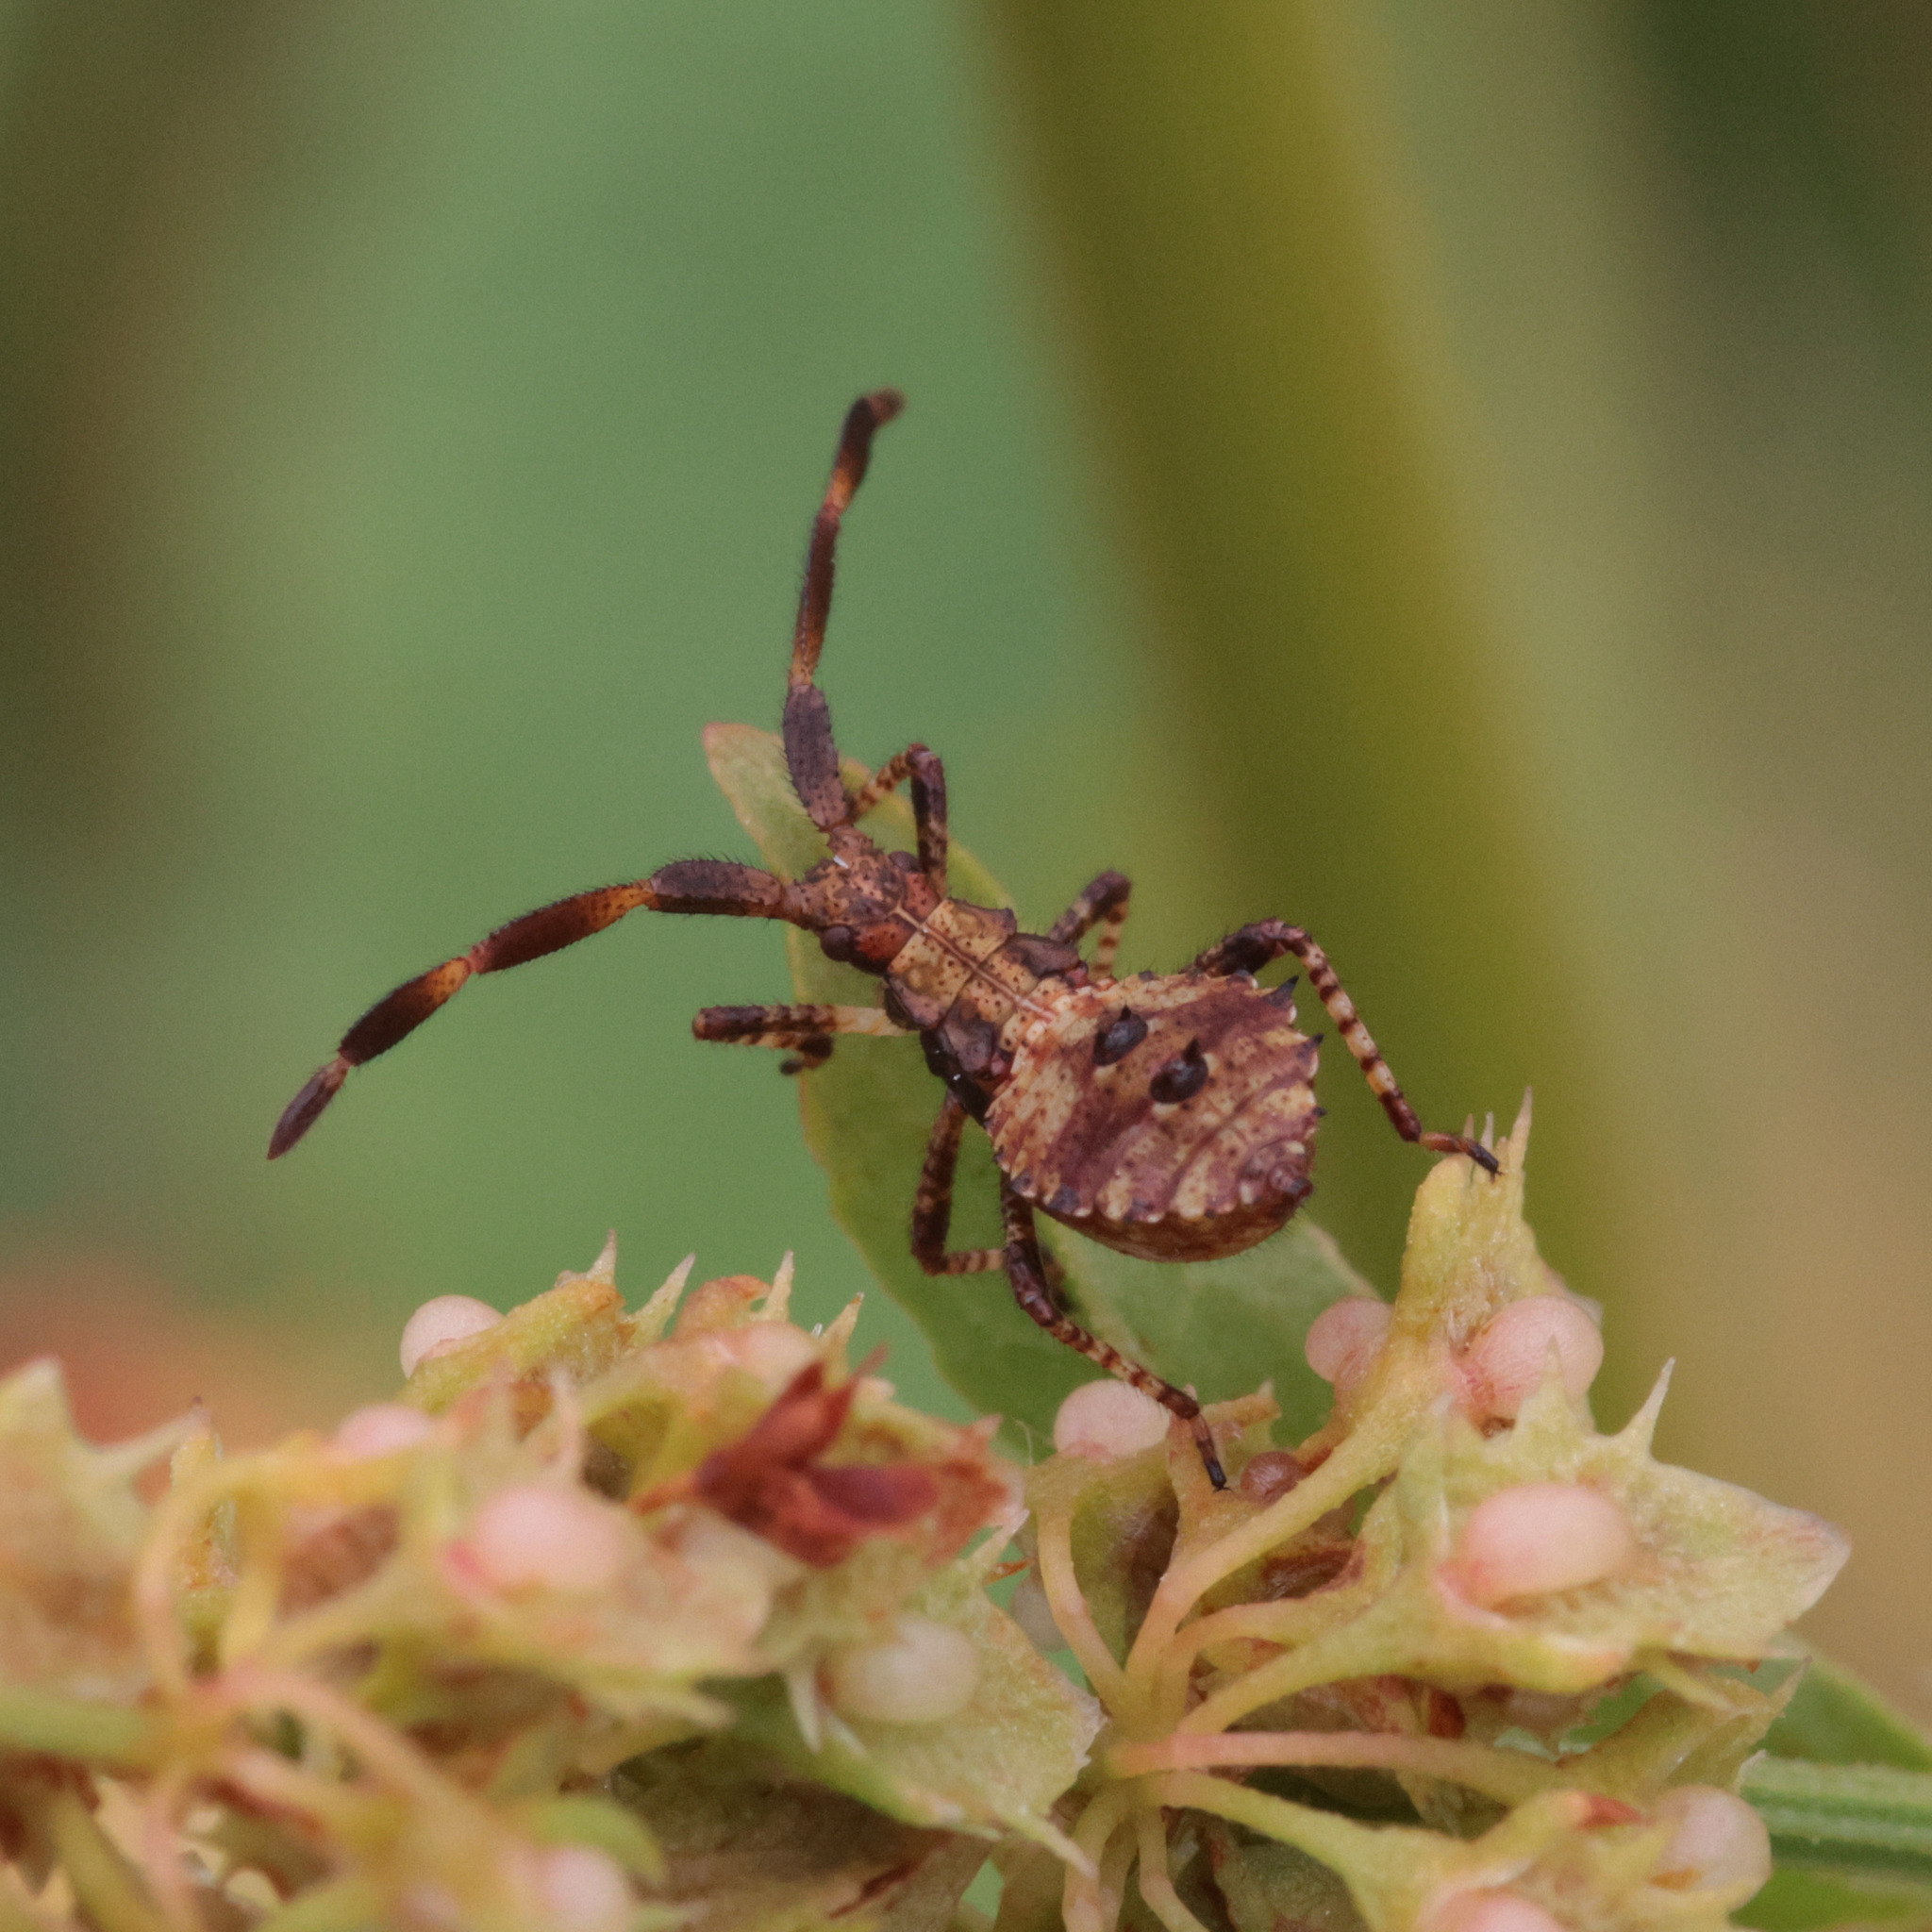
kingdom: Animalia
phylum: Arthropoda
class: Insecta
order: Hemiptera
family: Coreidae
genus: Coreus
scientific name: Coreus marginatus
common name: Dock bug
